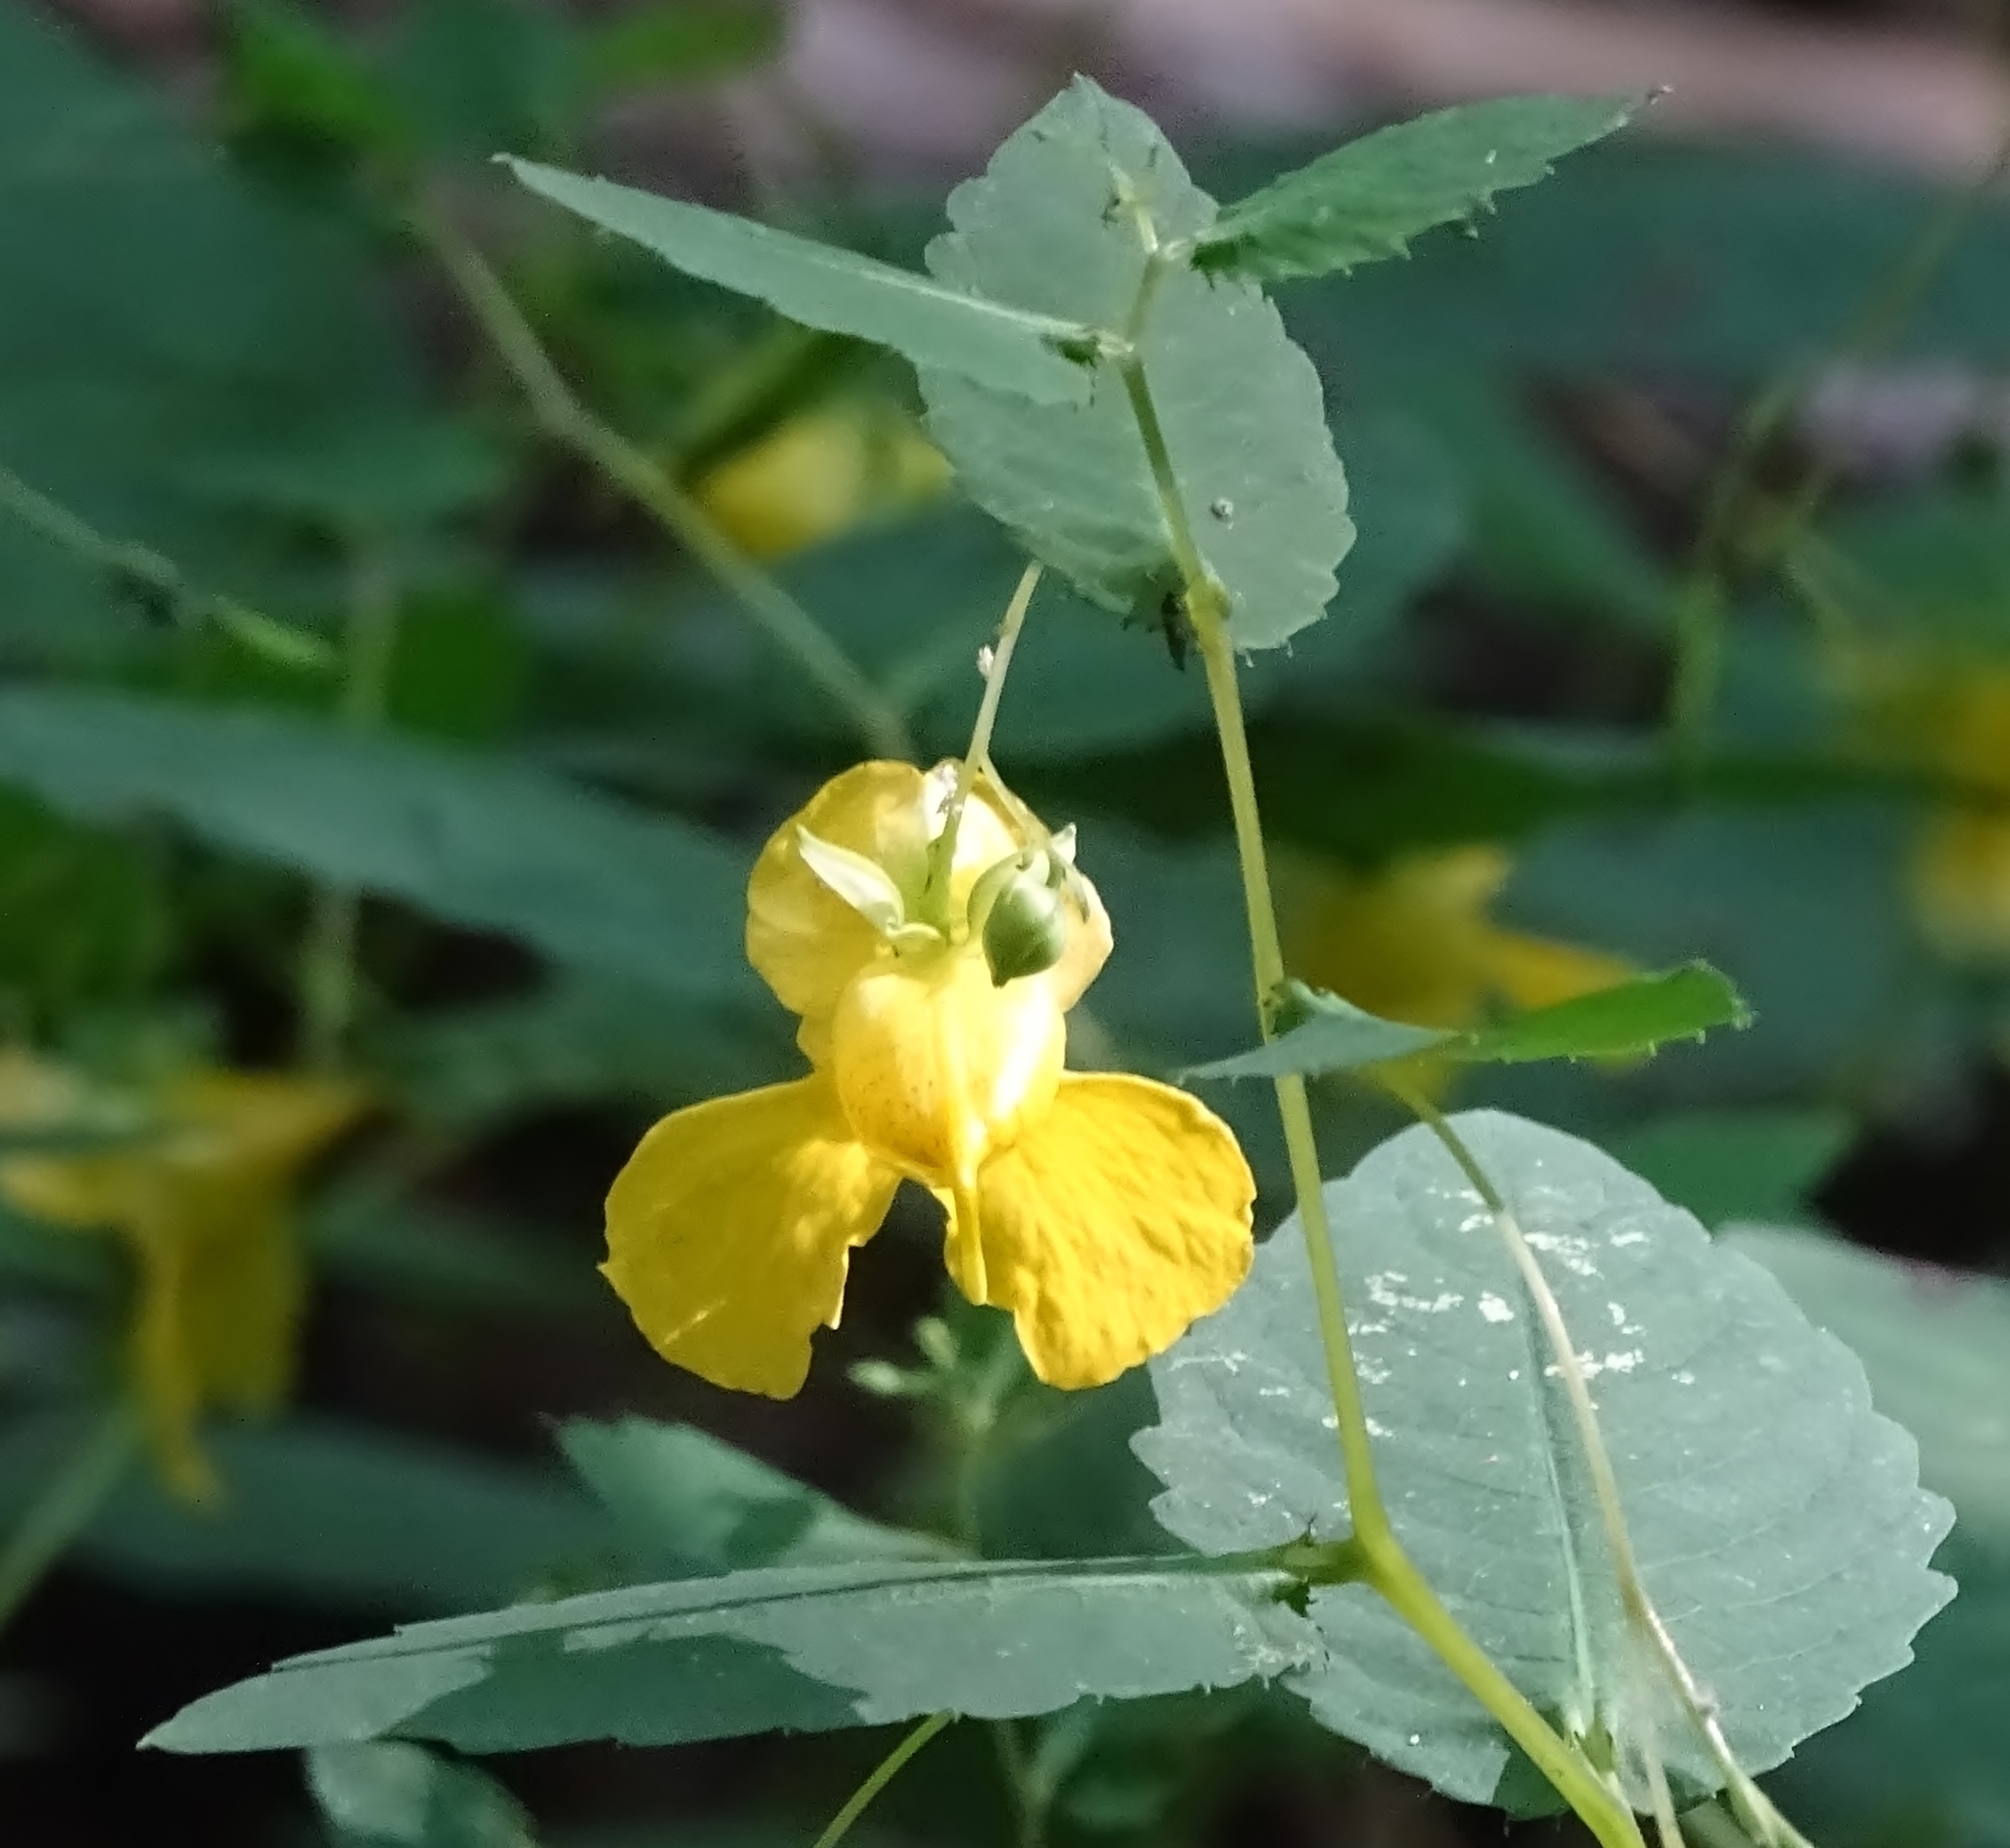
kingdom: Plantae
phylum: Tracheophyta
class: Magnoliopsida
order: Ericales
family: Balsaminaceae
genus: Impatiens
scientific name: Impatiens pallida
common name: Pale snapweed
